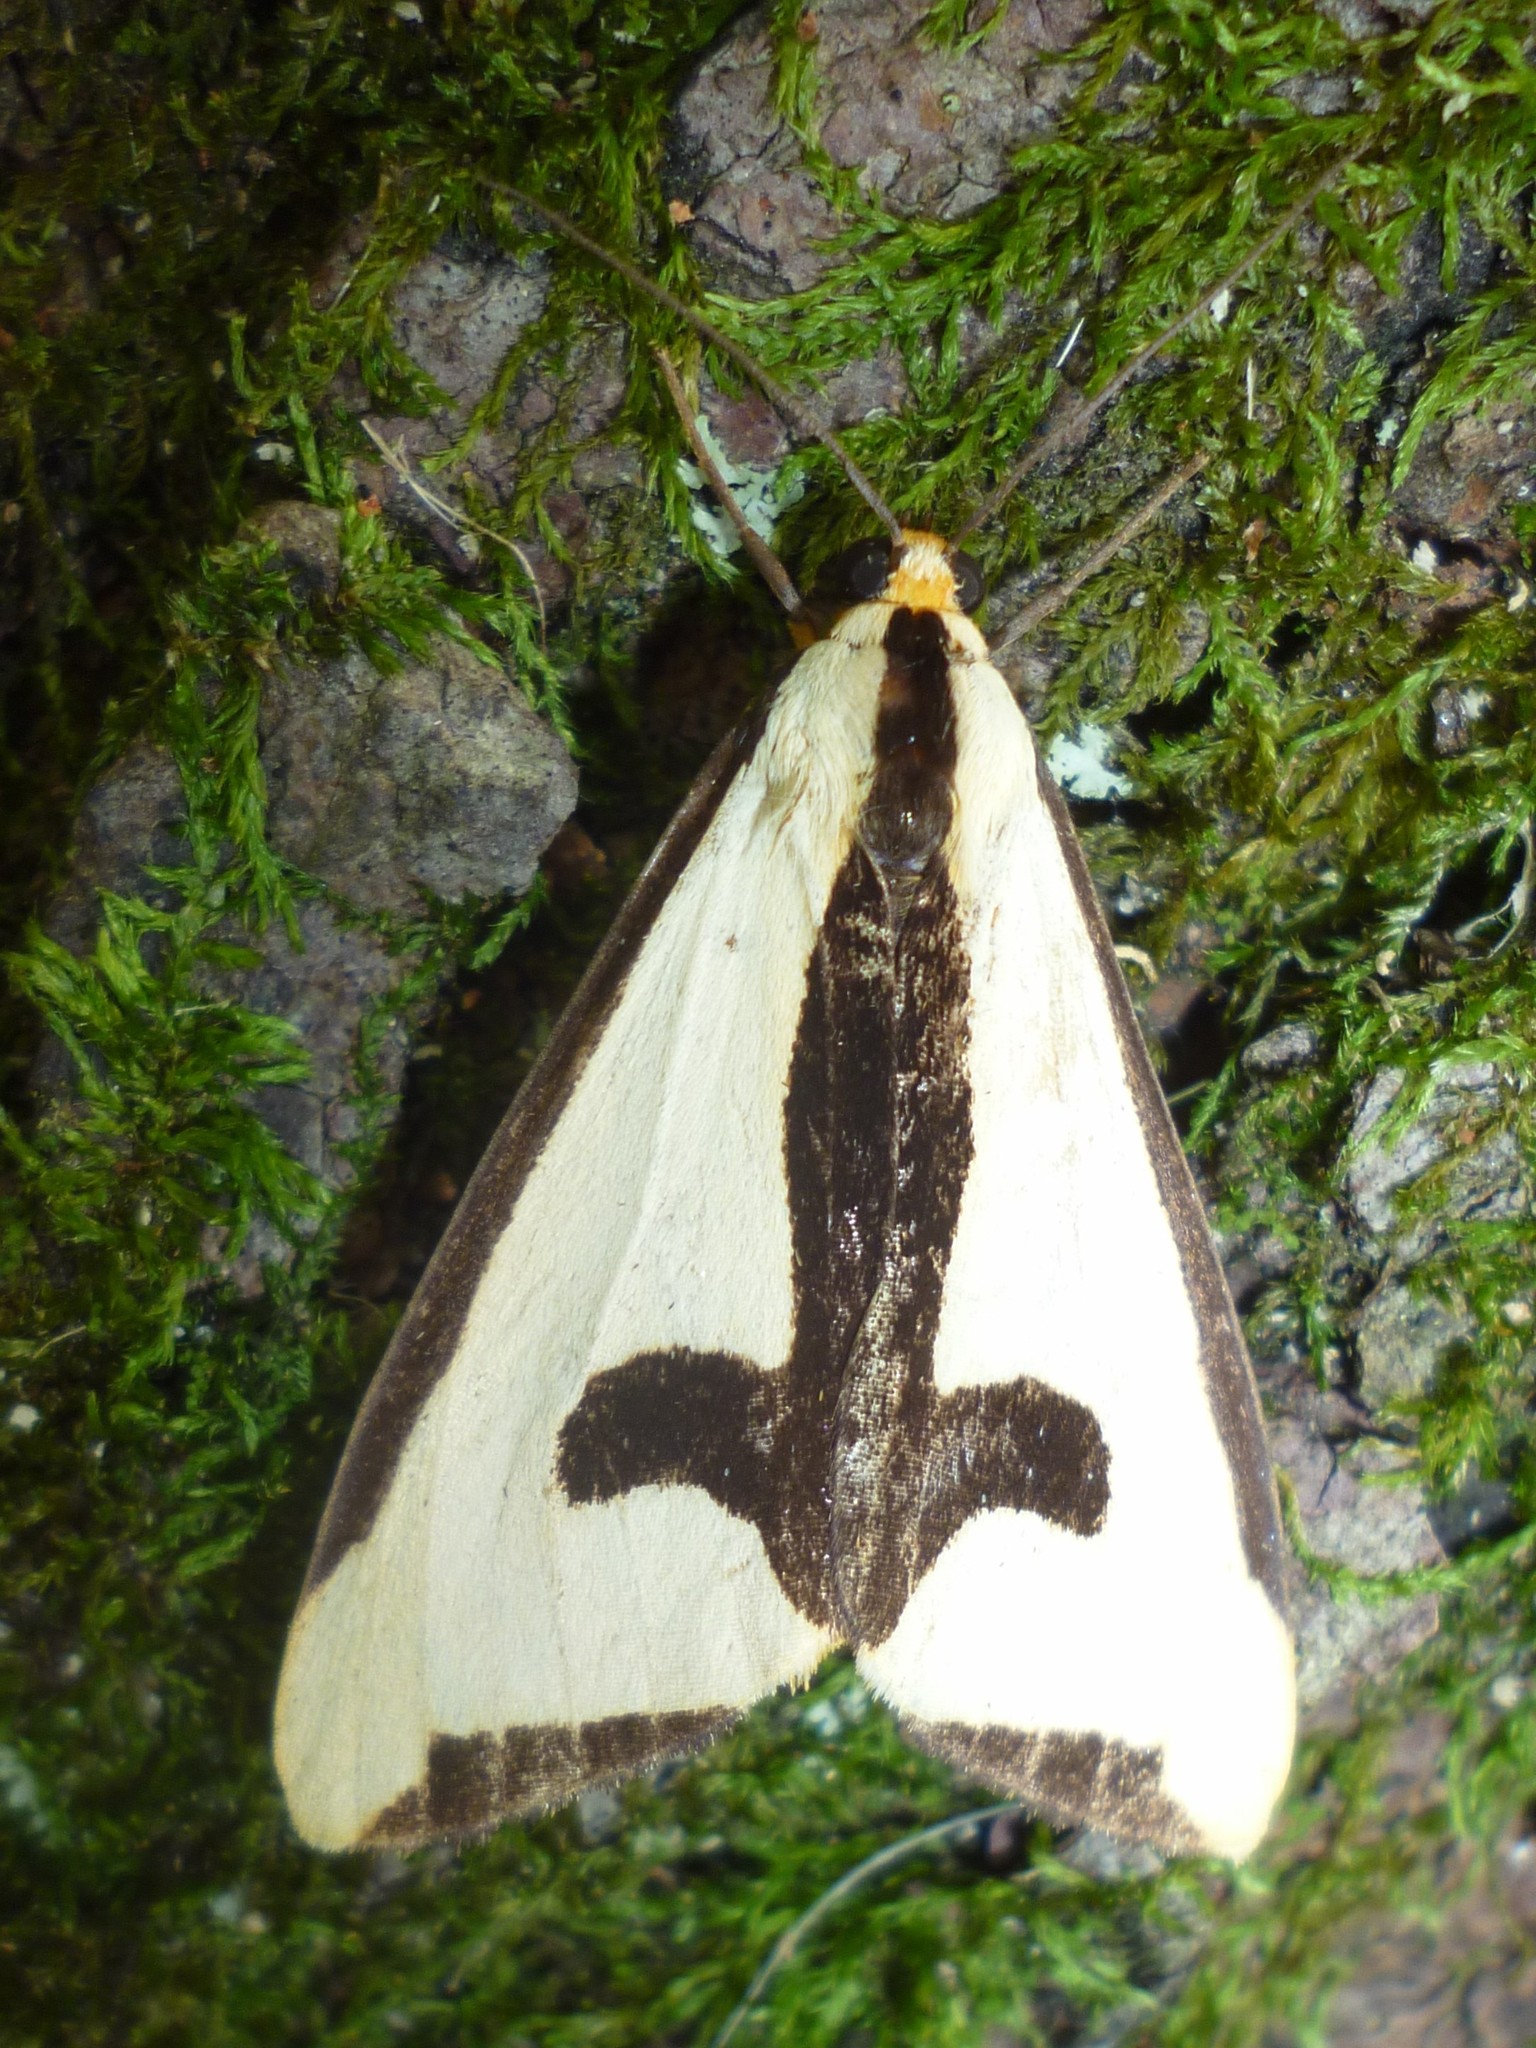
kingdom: Animalia
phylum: Arthropoda
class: Insecta
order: Lepidoptera
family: Erebidae
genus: Haploa
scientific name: Haploa clymene
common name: Clymene moth
